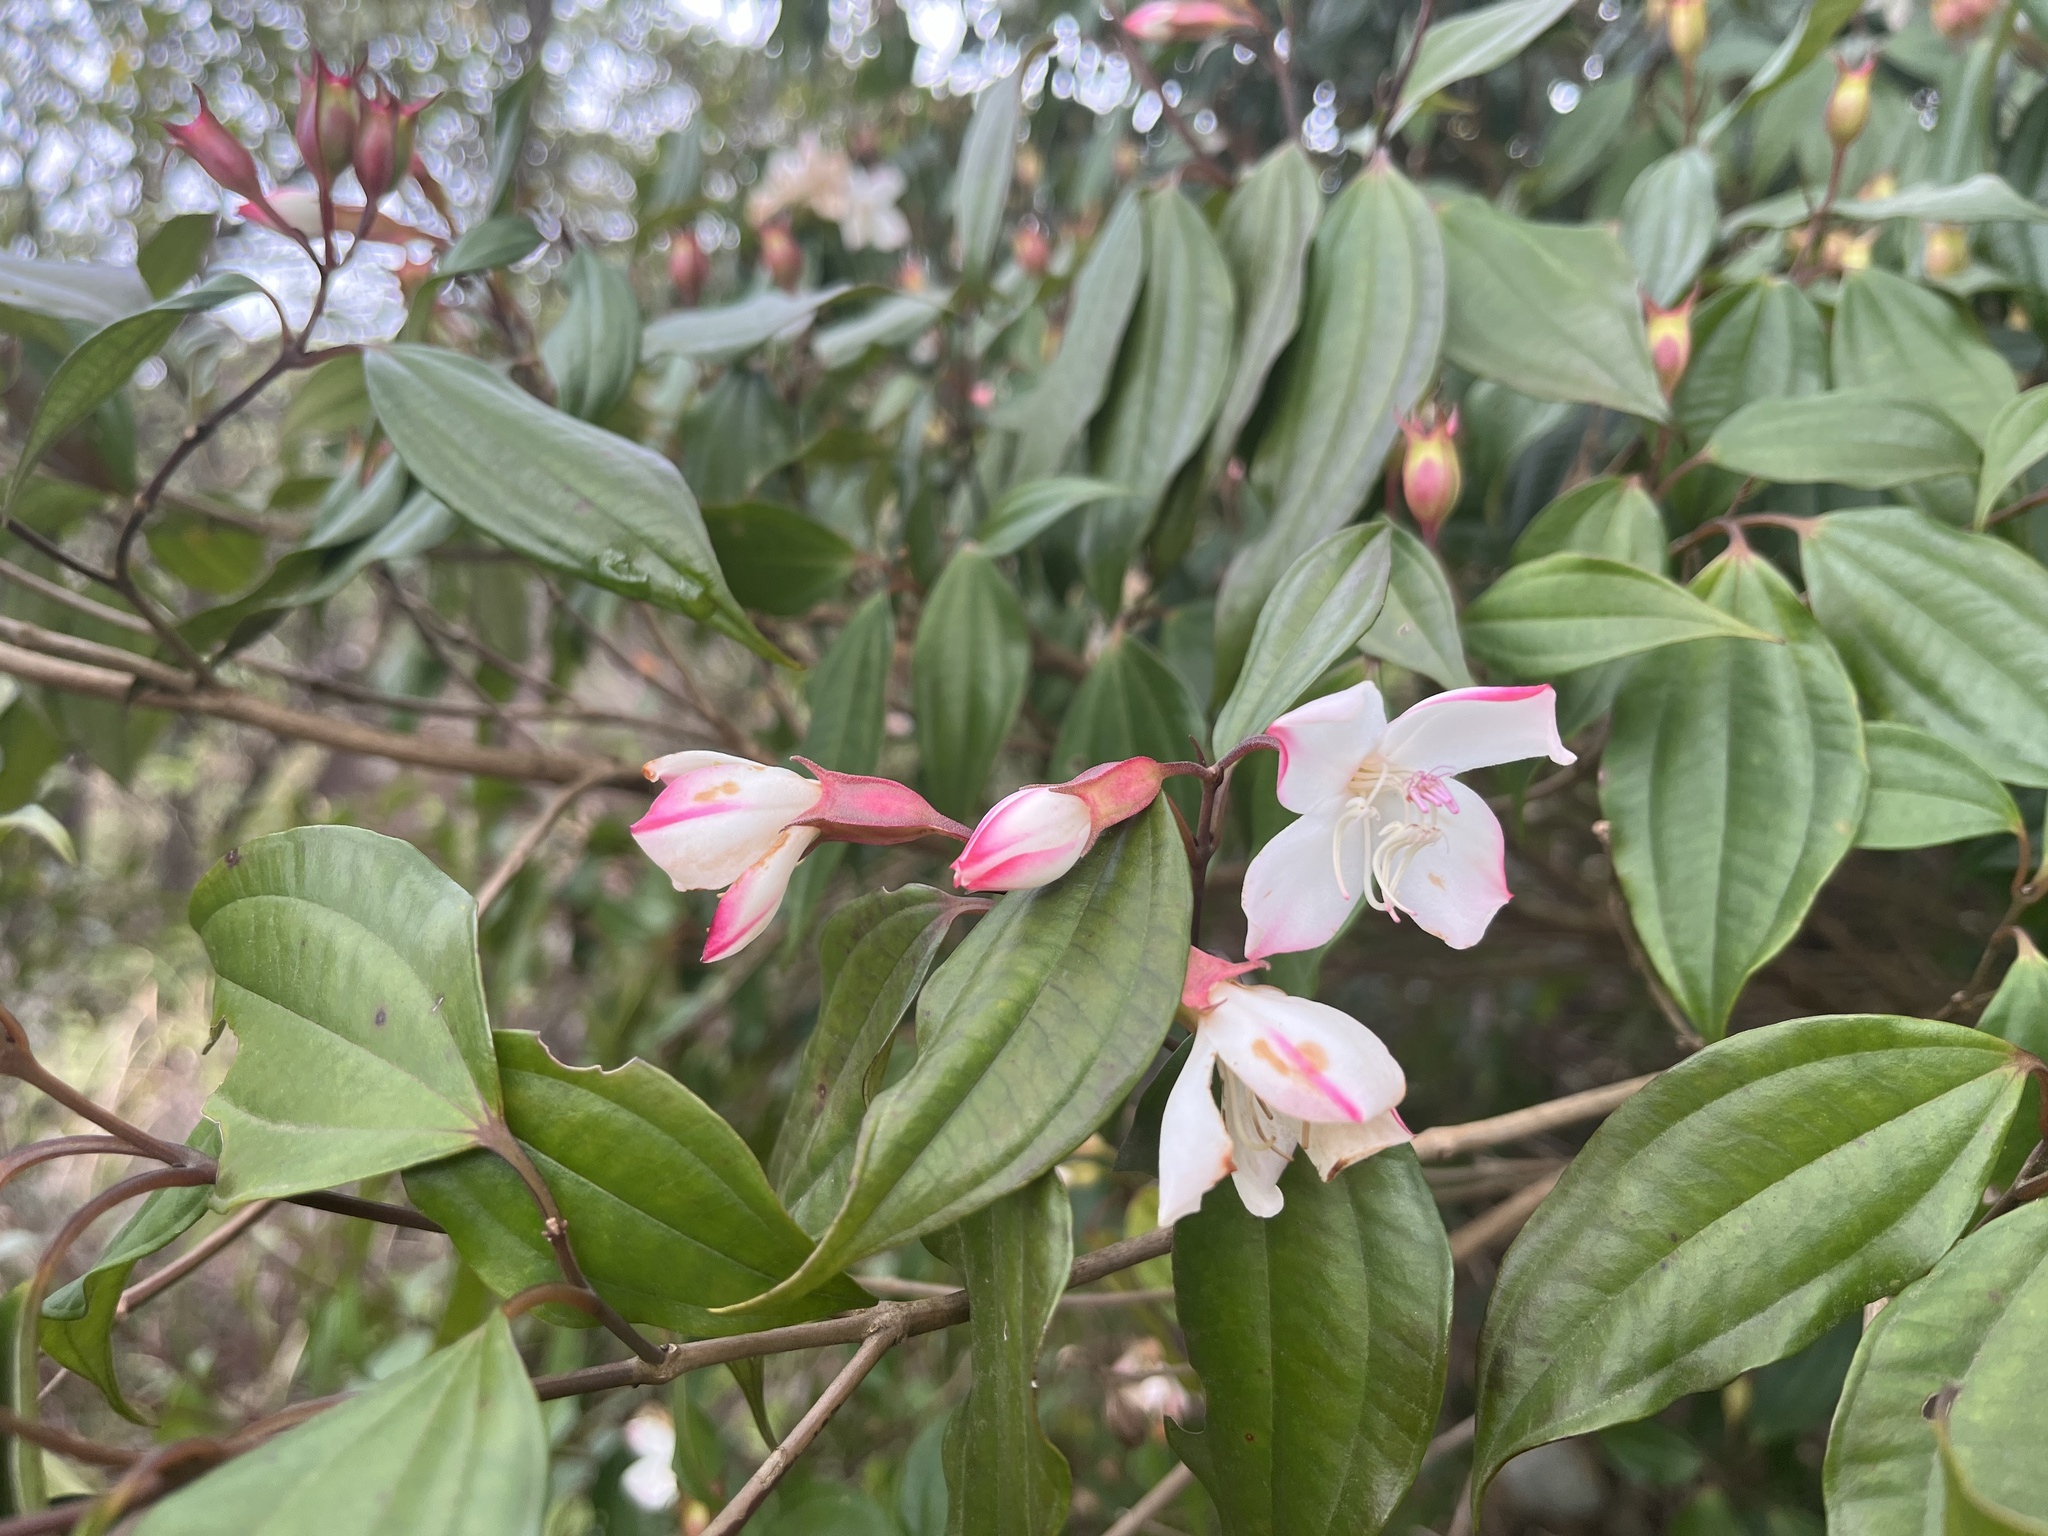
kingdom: Plantae
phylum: Tracheophyta
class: Magnoliopsida
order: Myrtales
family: Melastomataceae
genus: Barthea
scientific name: Barthea barthei
